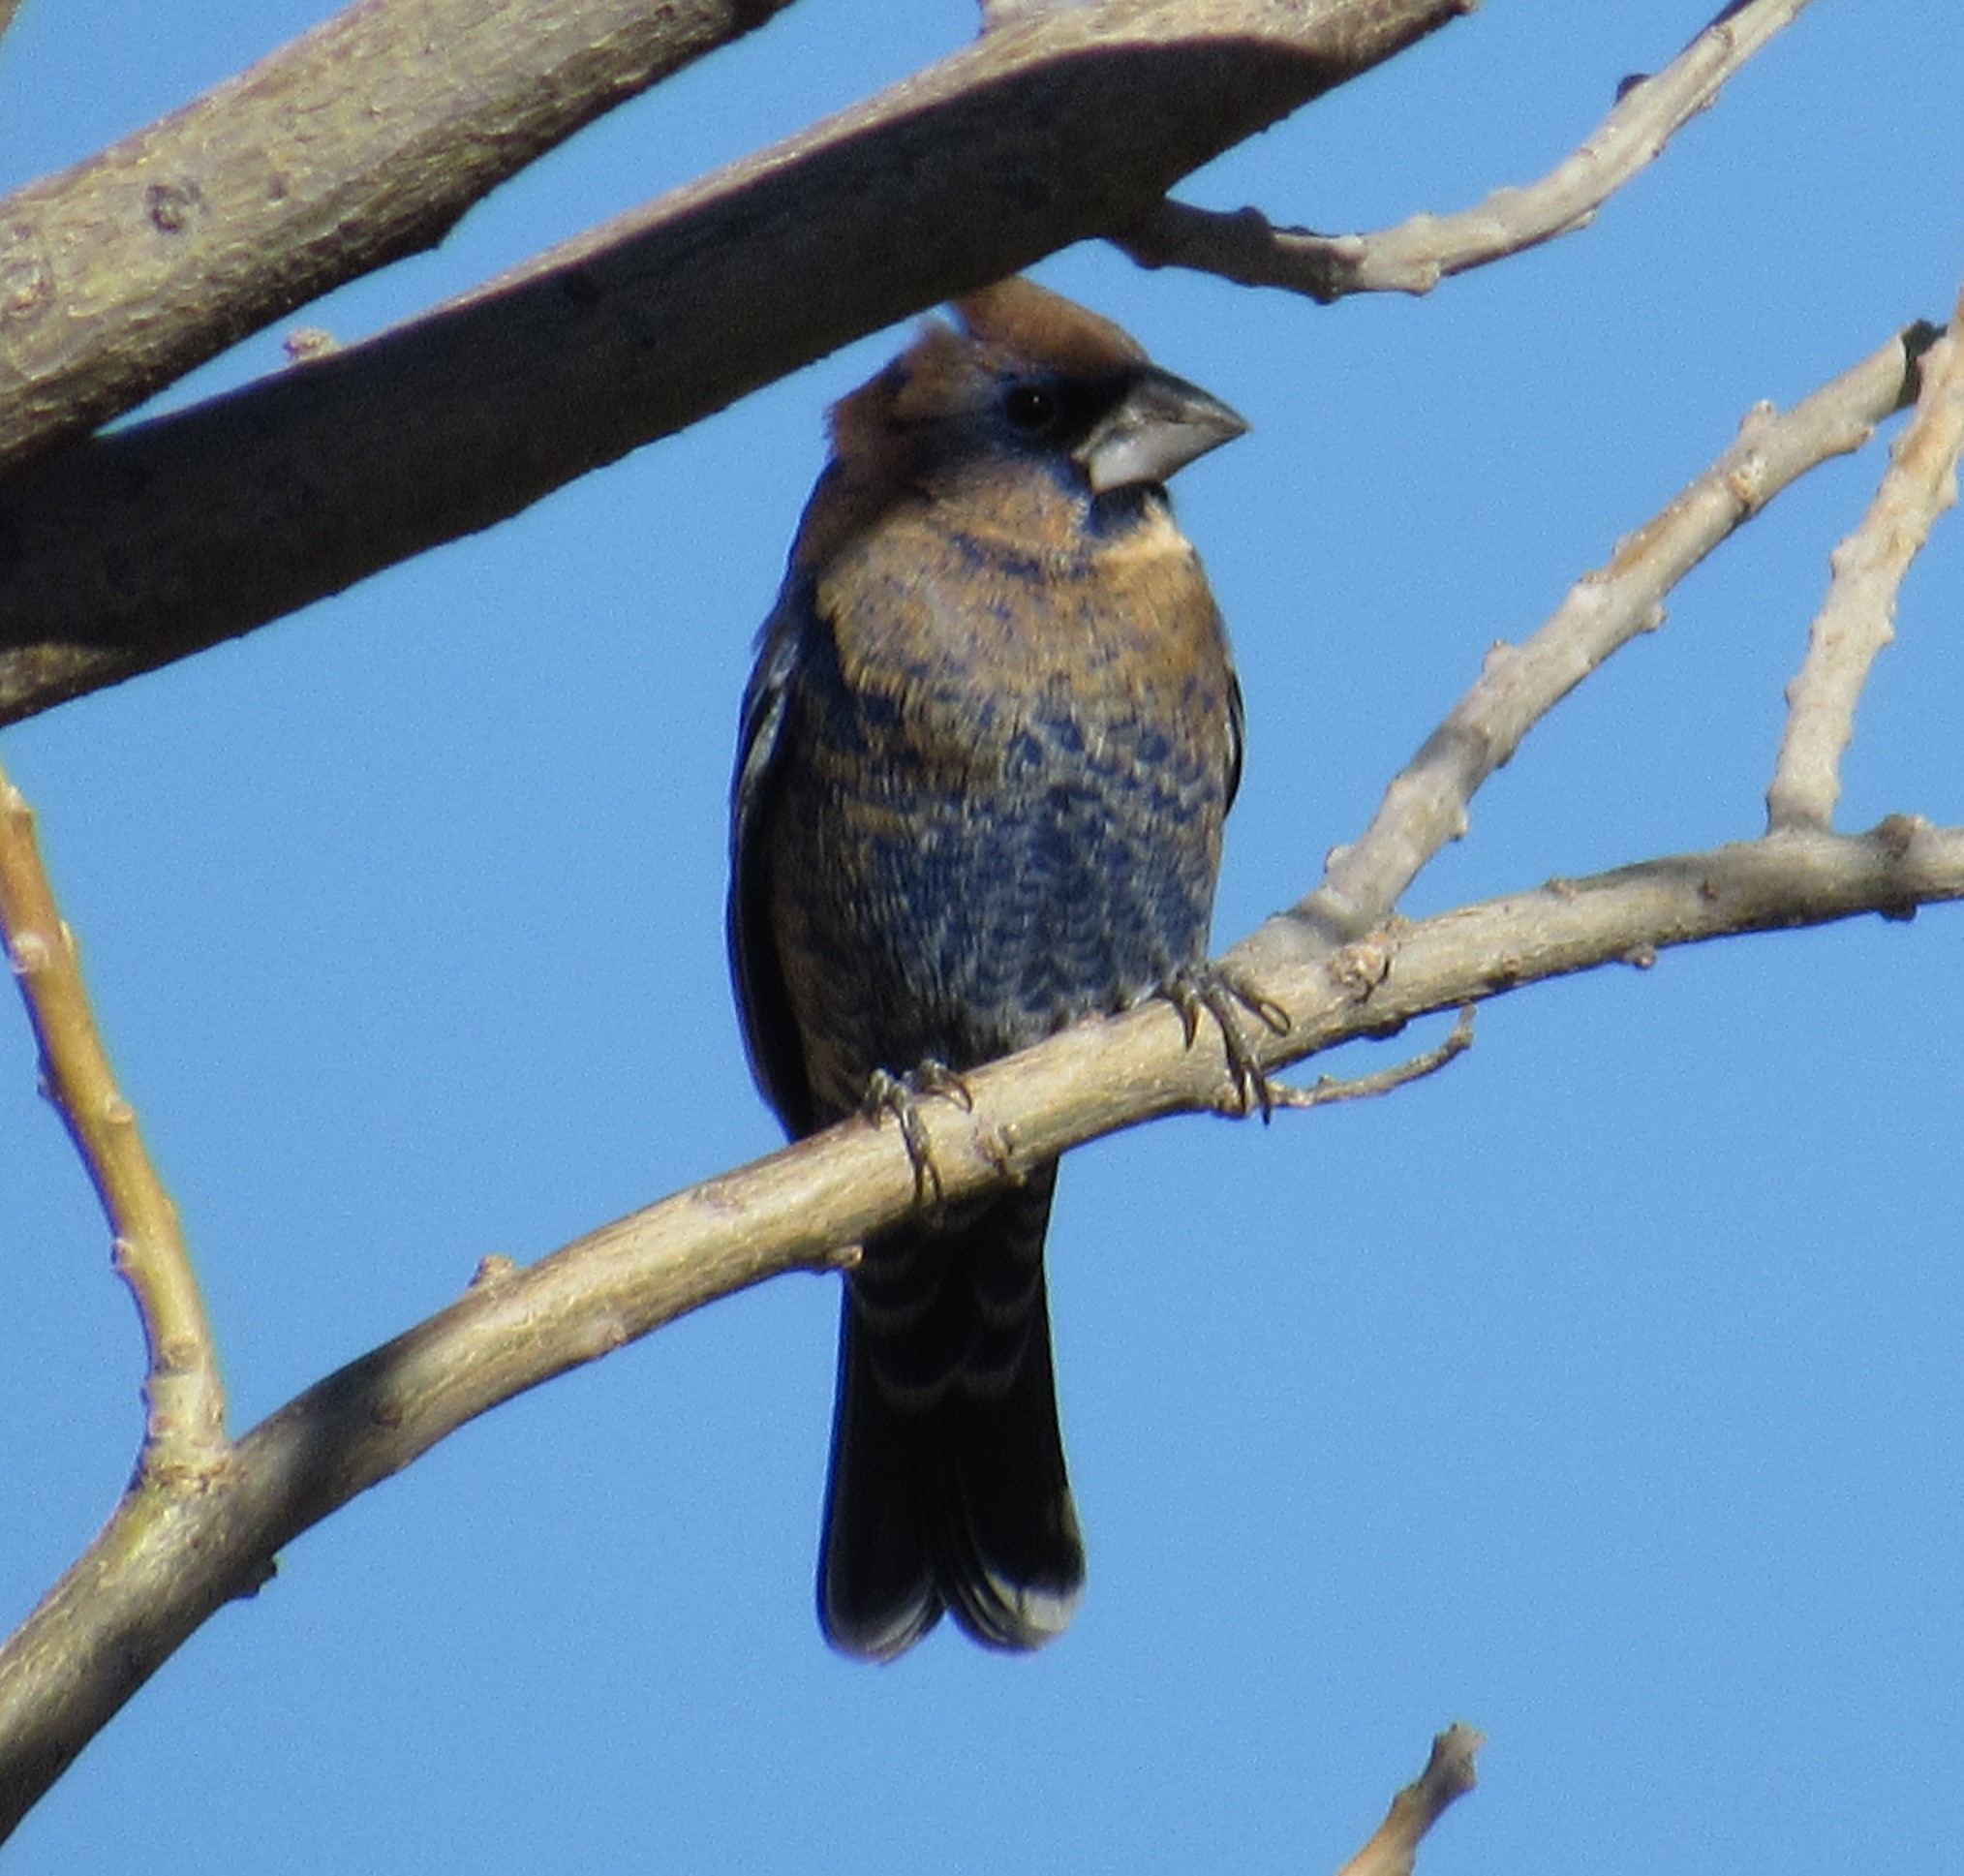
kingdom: Animalia
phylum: Chordata
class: Aves
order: Passeriformes
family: Cardinalidae
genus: Passerina
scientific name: Passerina caerulea
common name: Blue grosbeak
